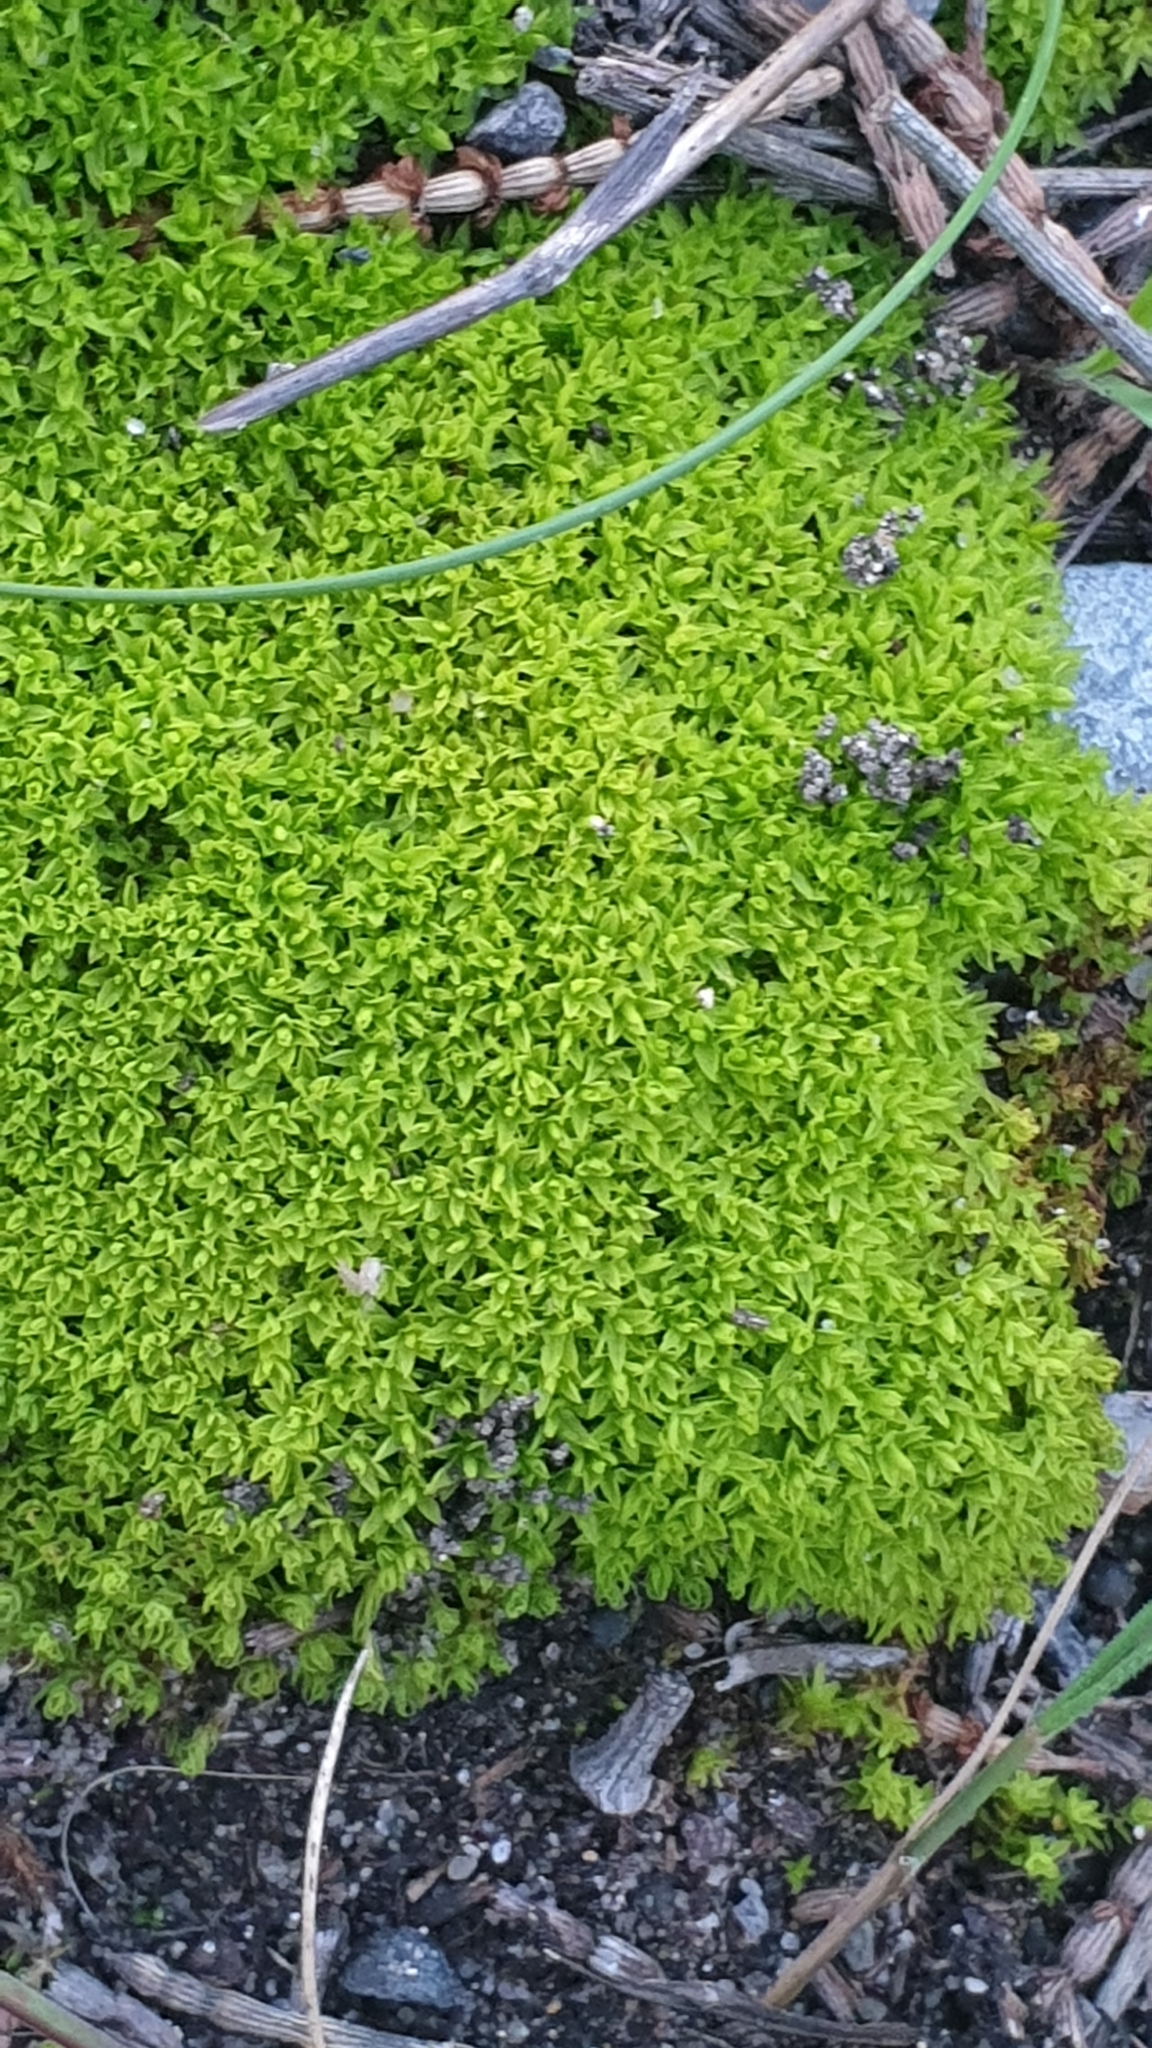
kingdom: Plantae
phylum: Bryophyta
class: Bryopsida
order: Pottiales
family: Pottiaceae
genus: Barbula
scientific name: Barbula calycina
